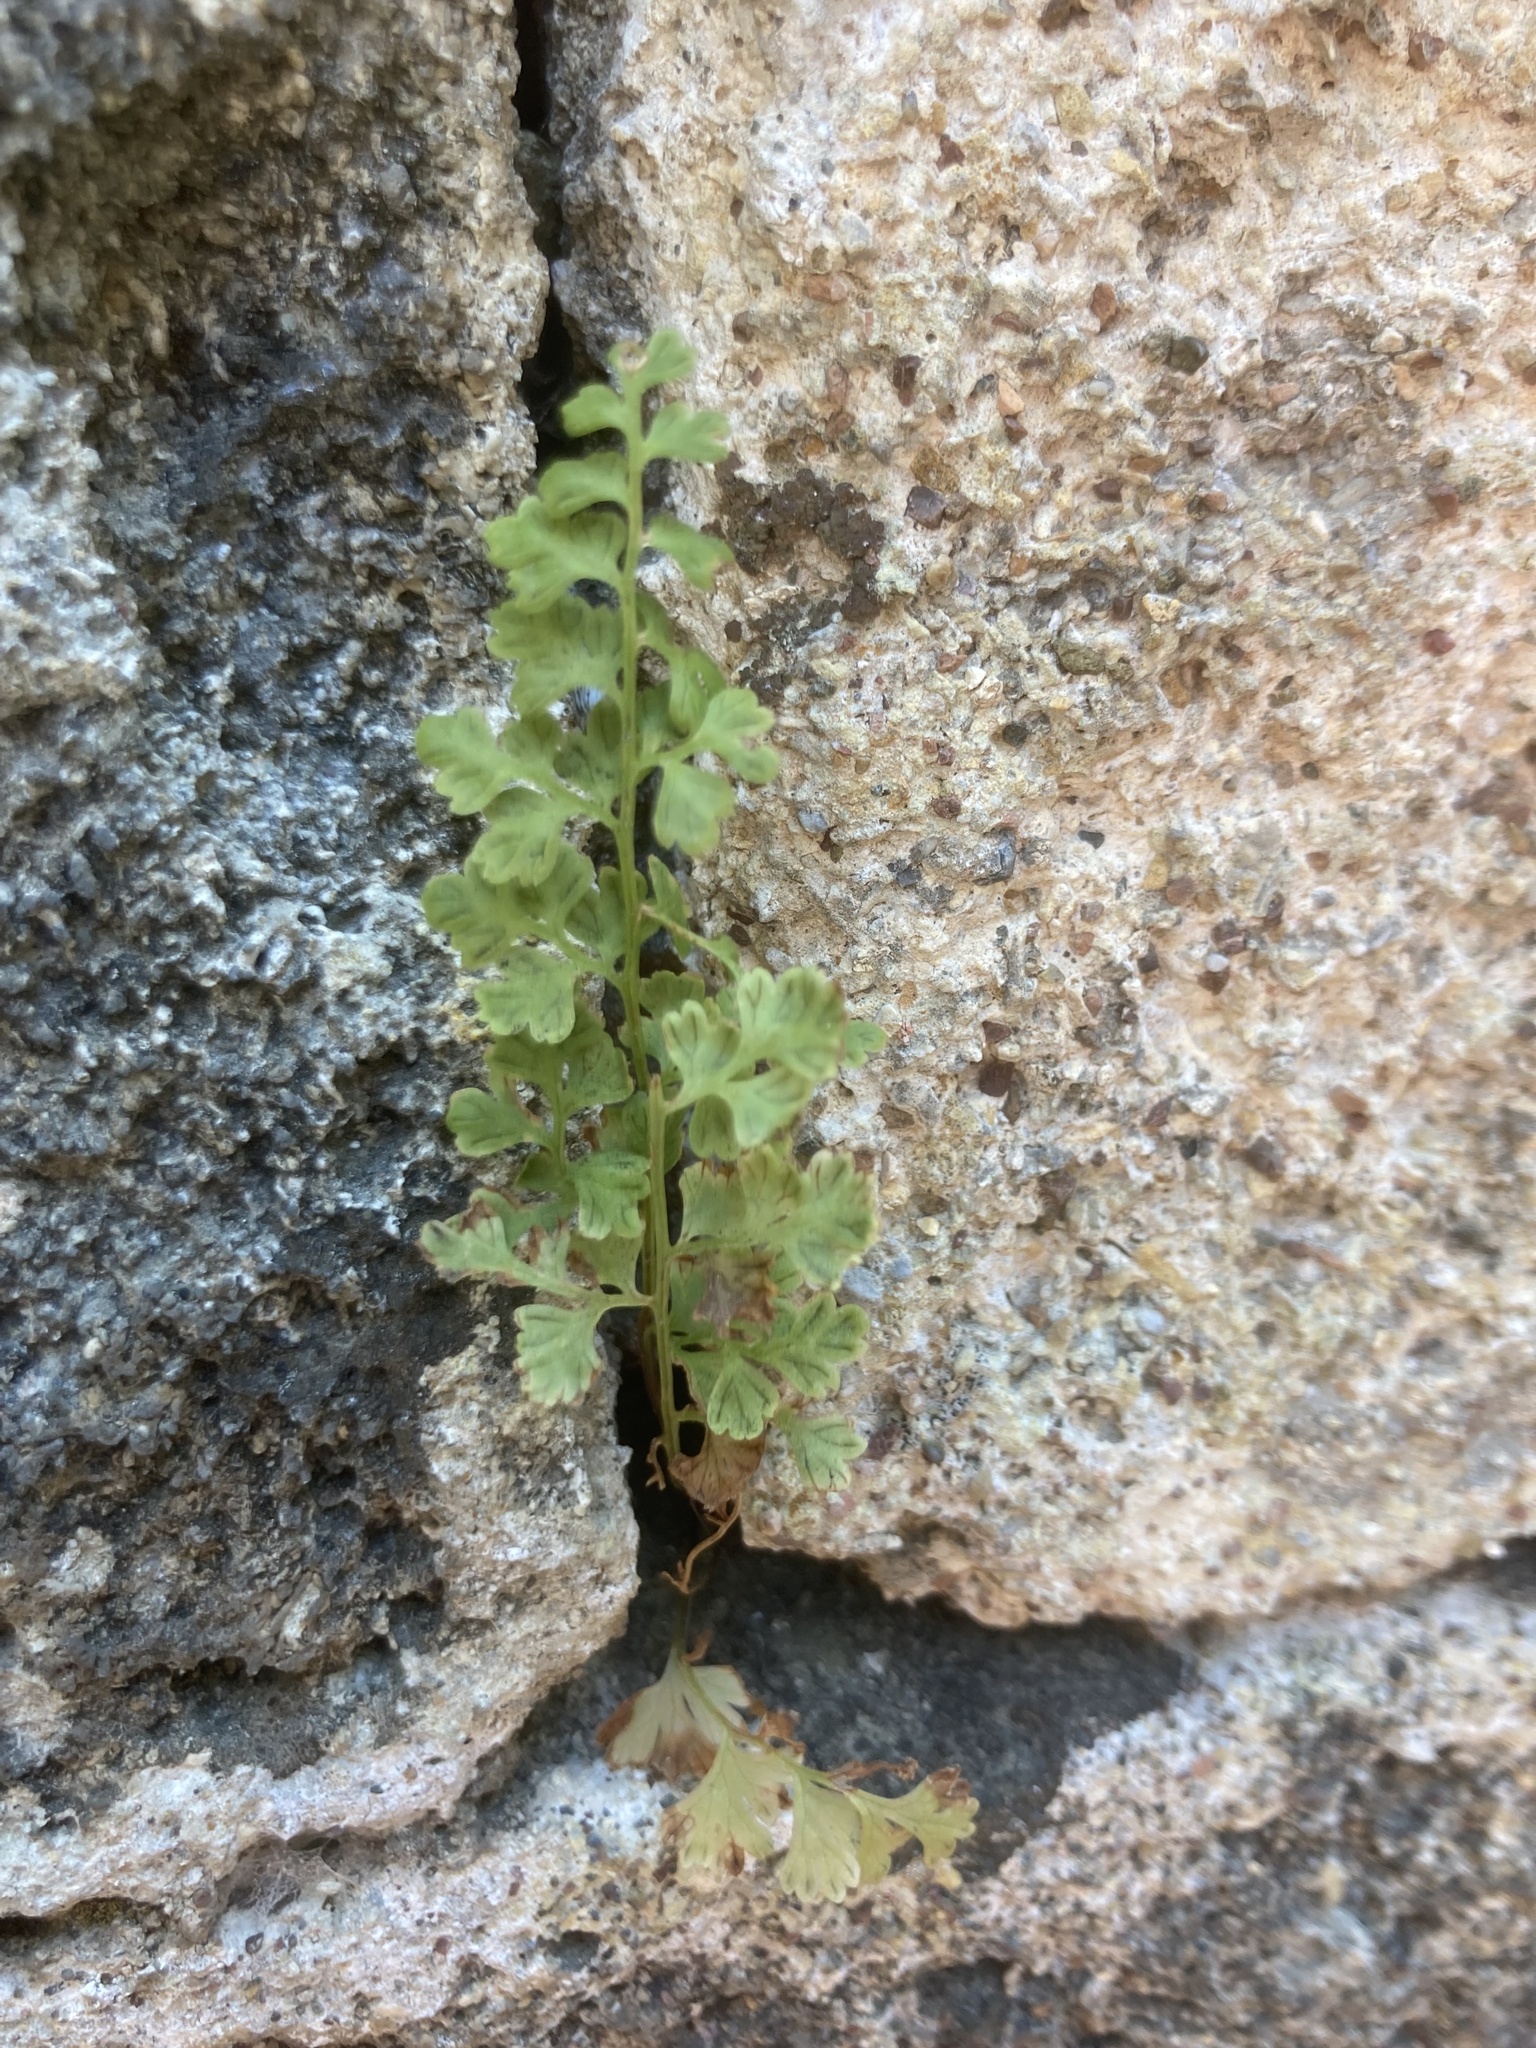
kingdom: Plantae
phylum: Tracheophyta
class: Polypodiopsida
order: Polypodiales
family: Pteridaceae
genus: Anogramma
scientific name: Anogramma leptophylla
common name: Jersey fern
